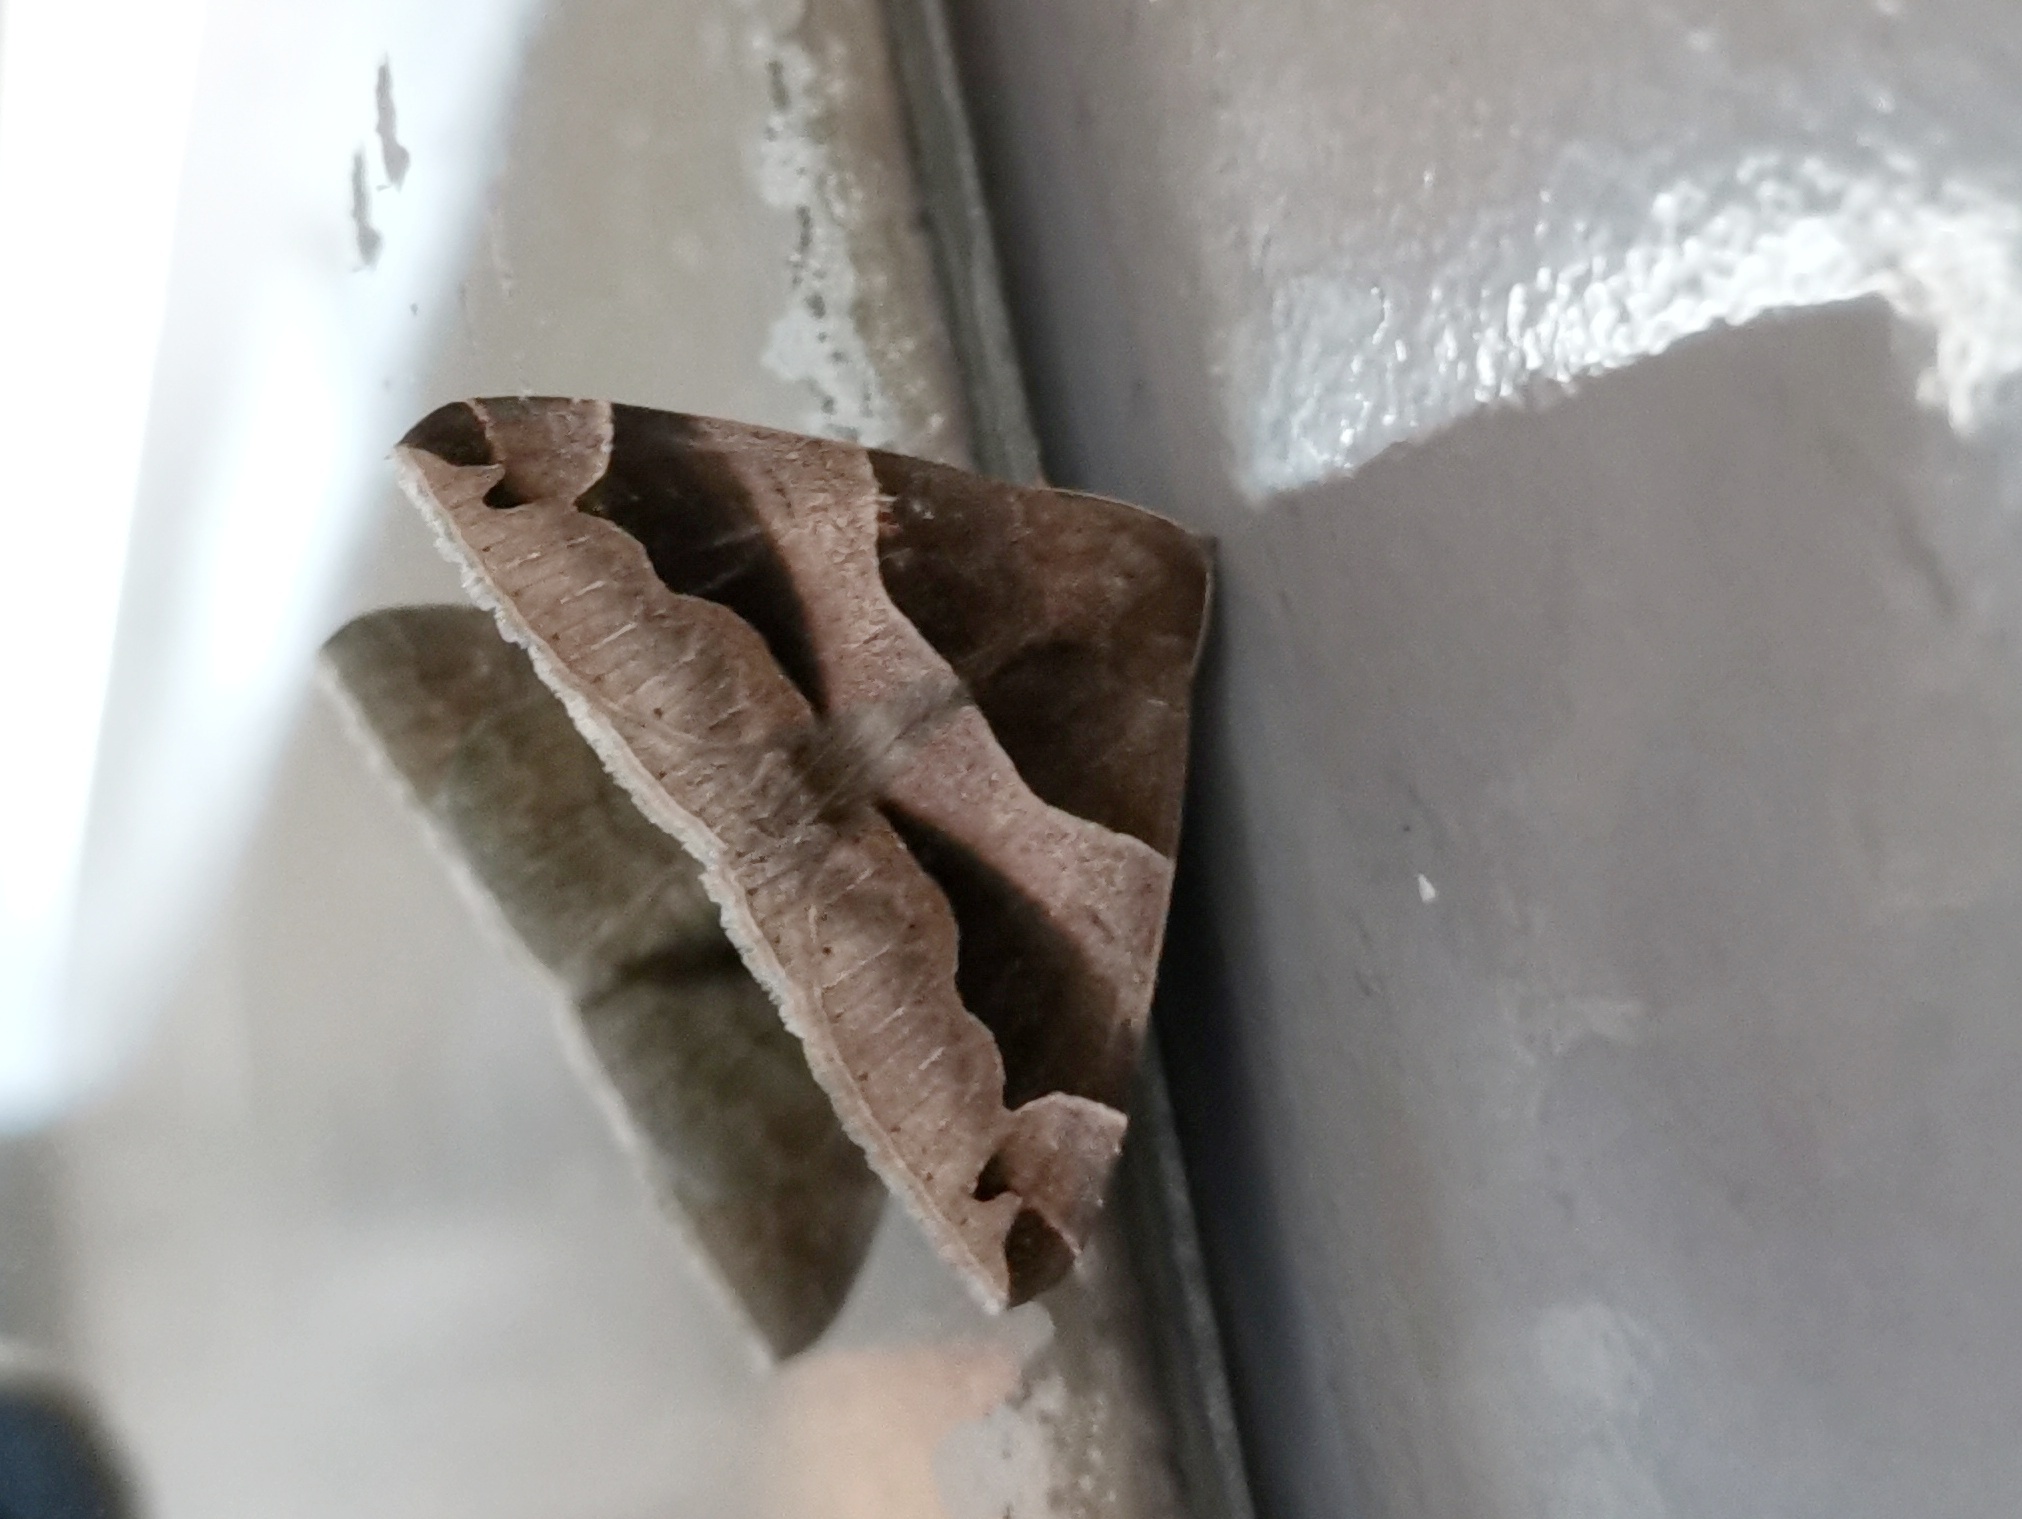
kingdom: Animalia
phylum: Arthropoda
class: Insecta
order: Lepidoptera
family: Erebidae
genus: Dysgonia
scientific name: Dysgonia stuposa
